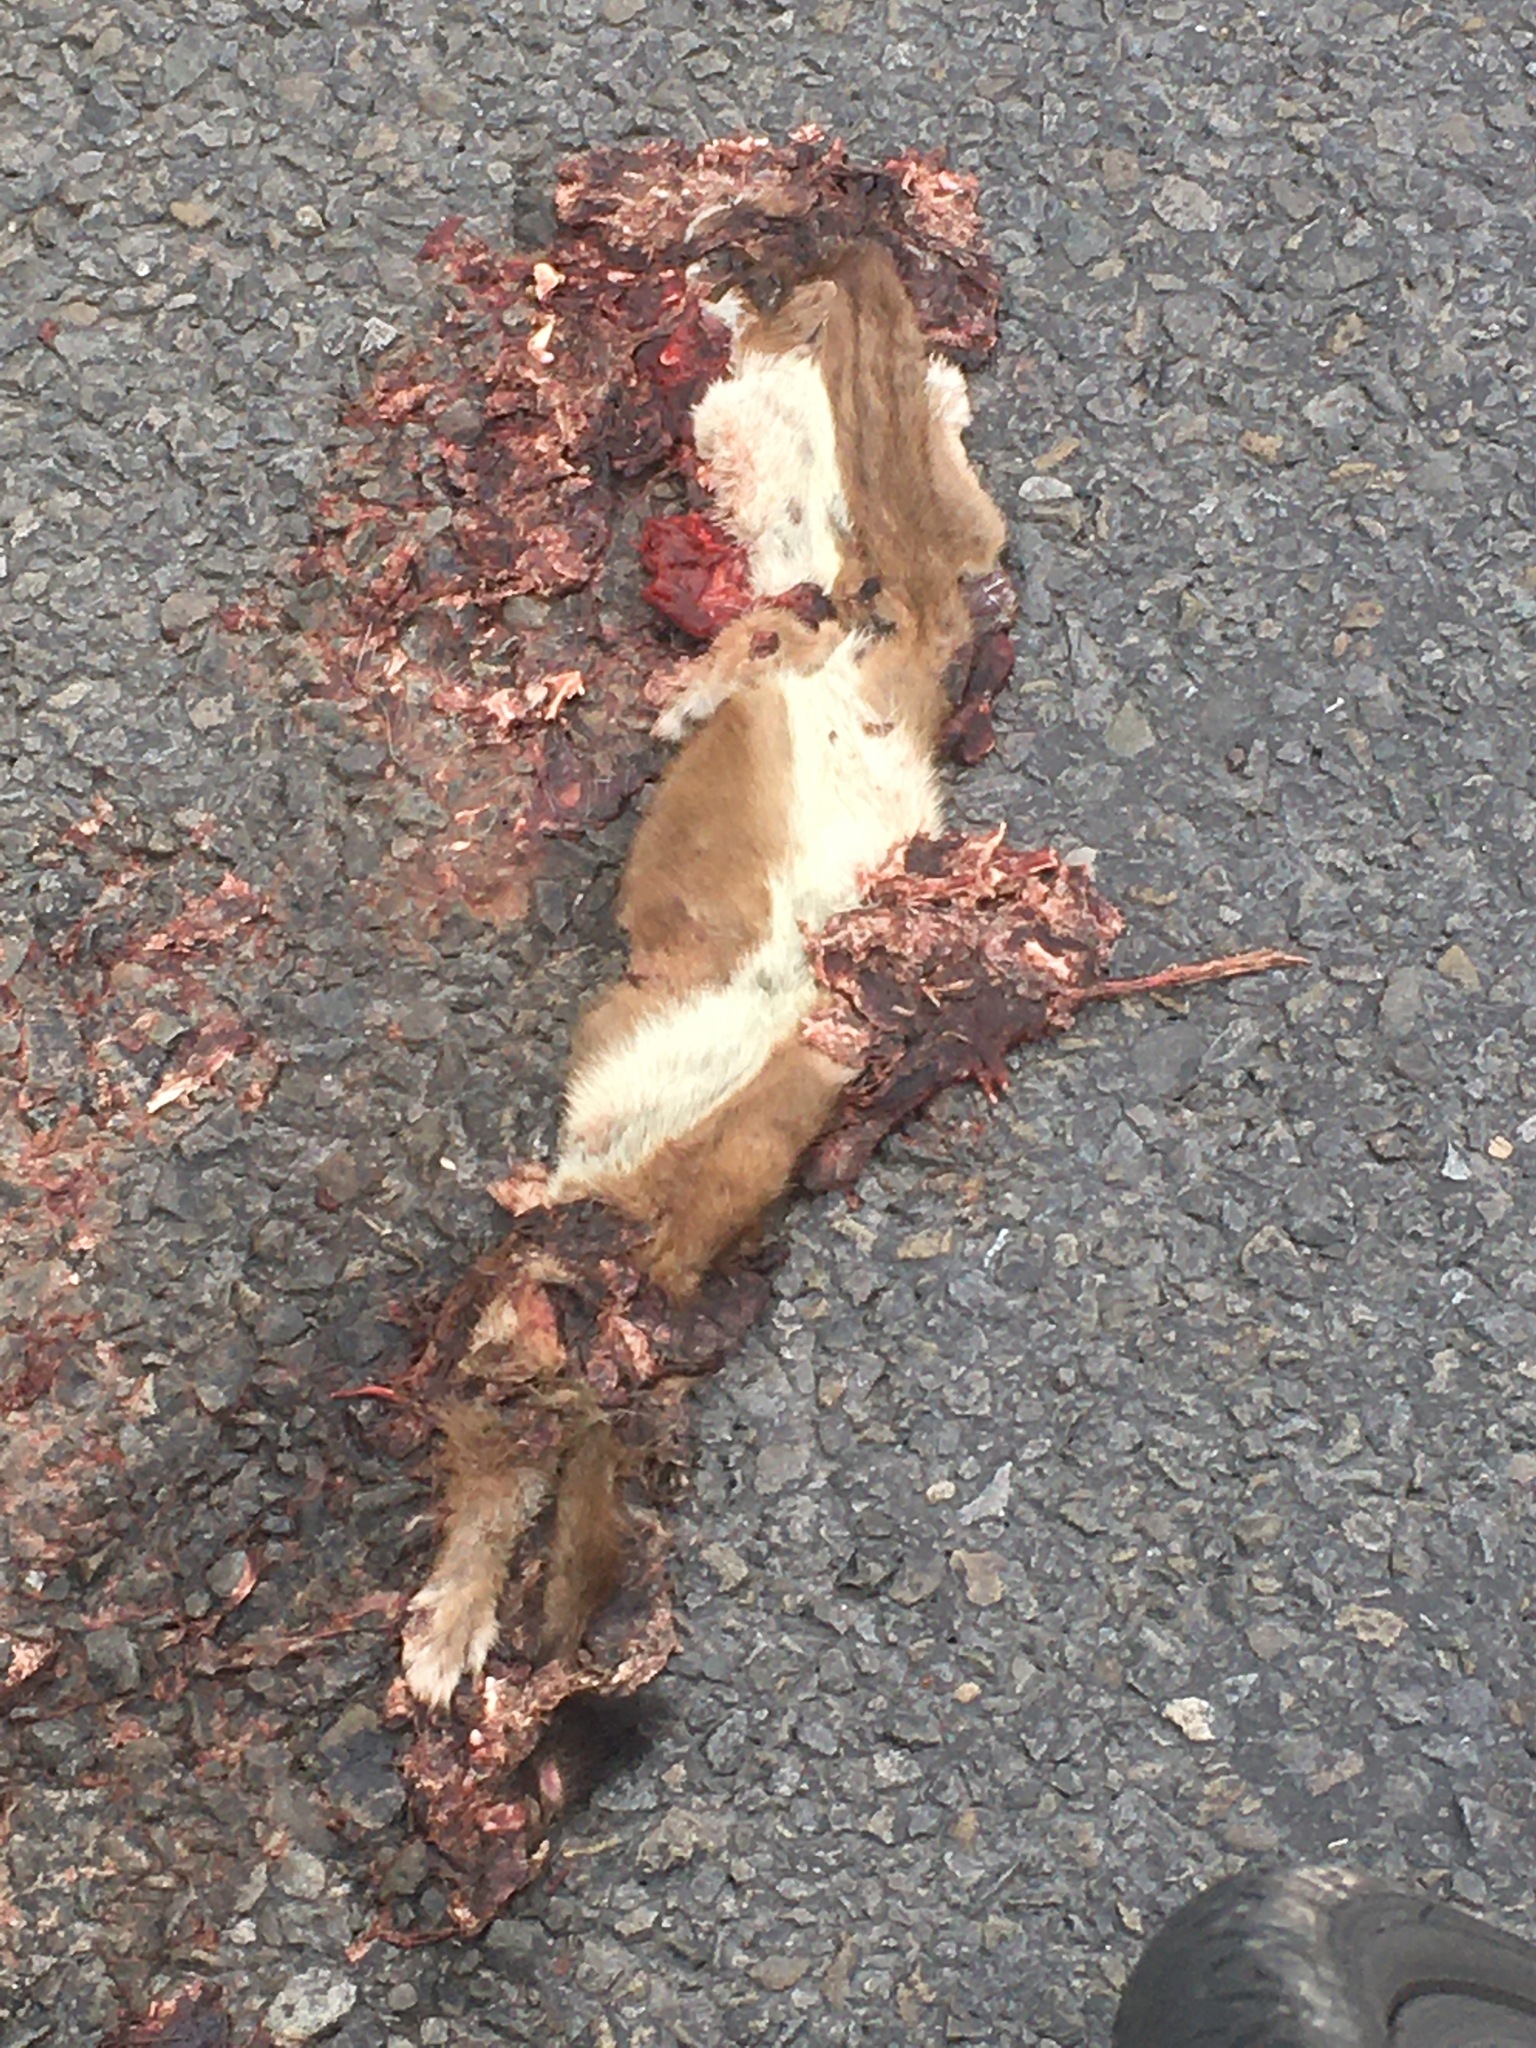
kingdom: Animalia
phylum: Chordata
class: Mammalia
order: Carnivora
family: Mustelidae
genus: Mustela
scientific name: Mustela erminea
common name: Stoat
